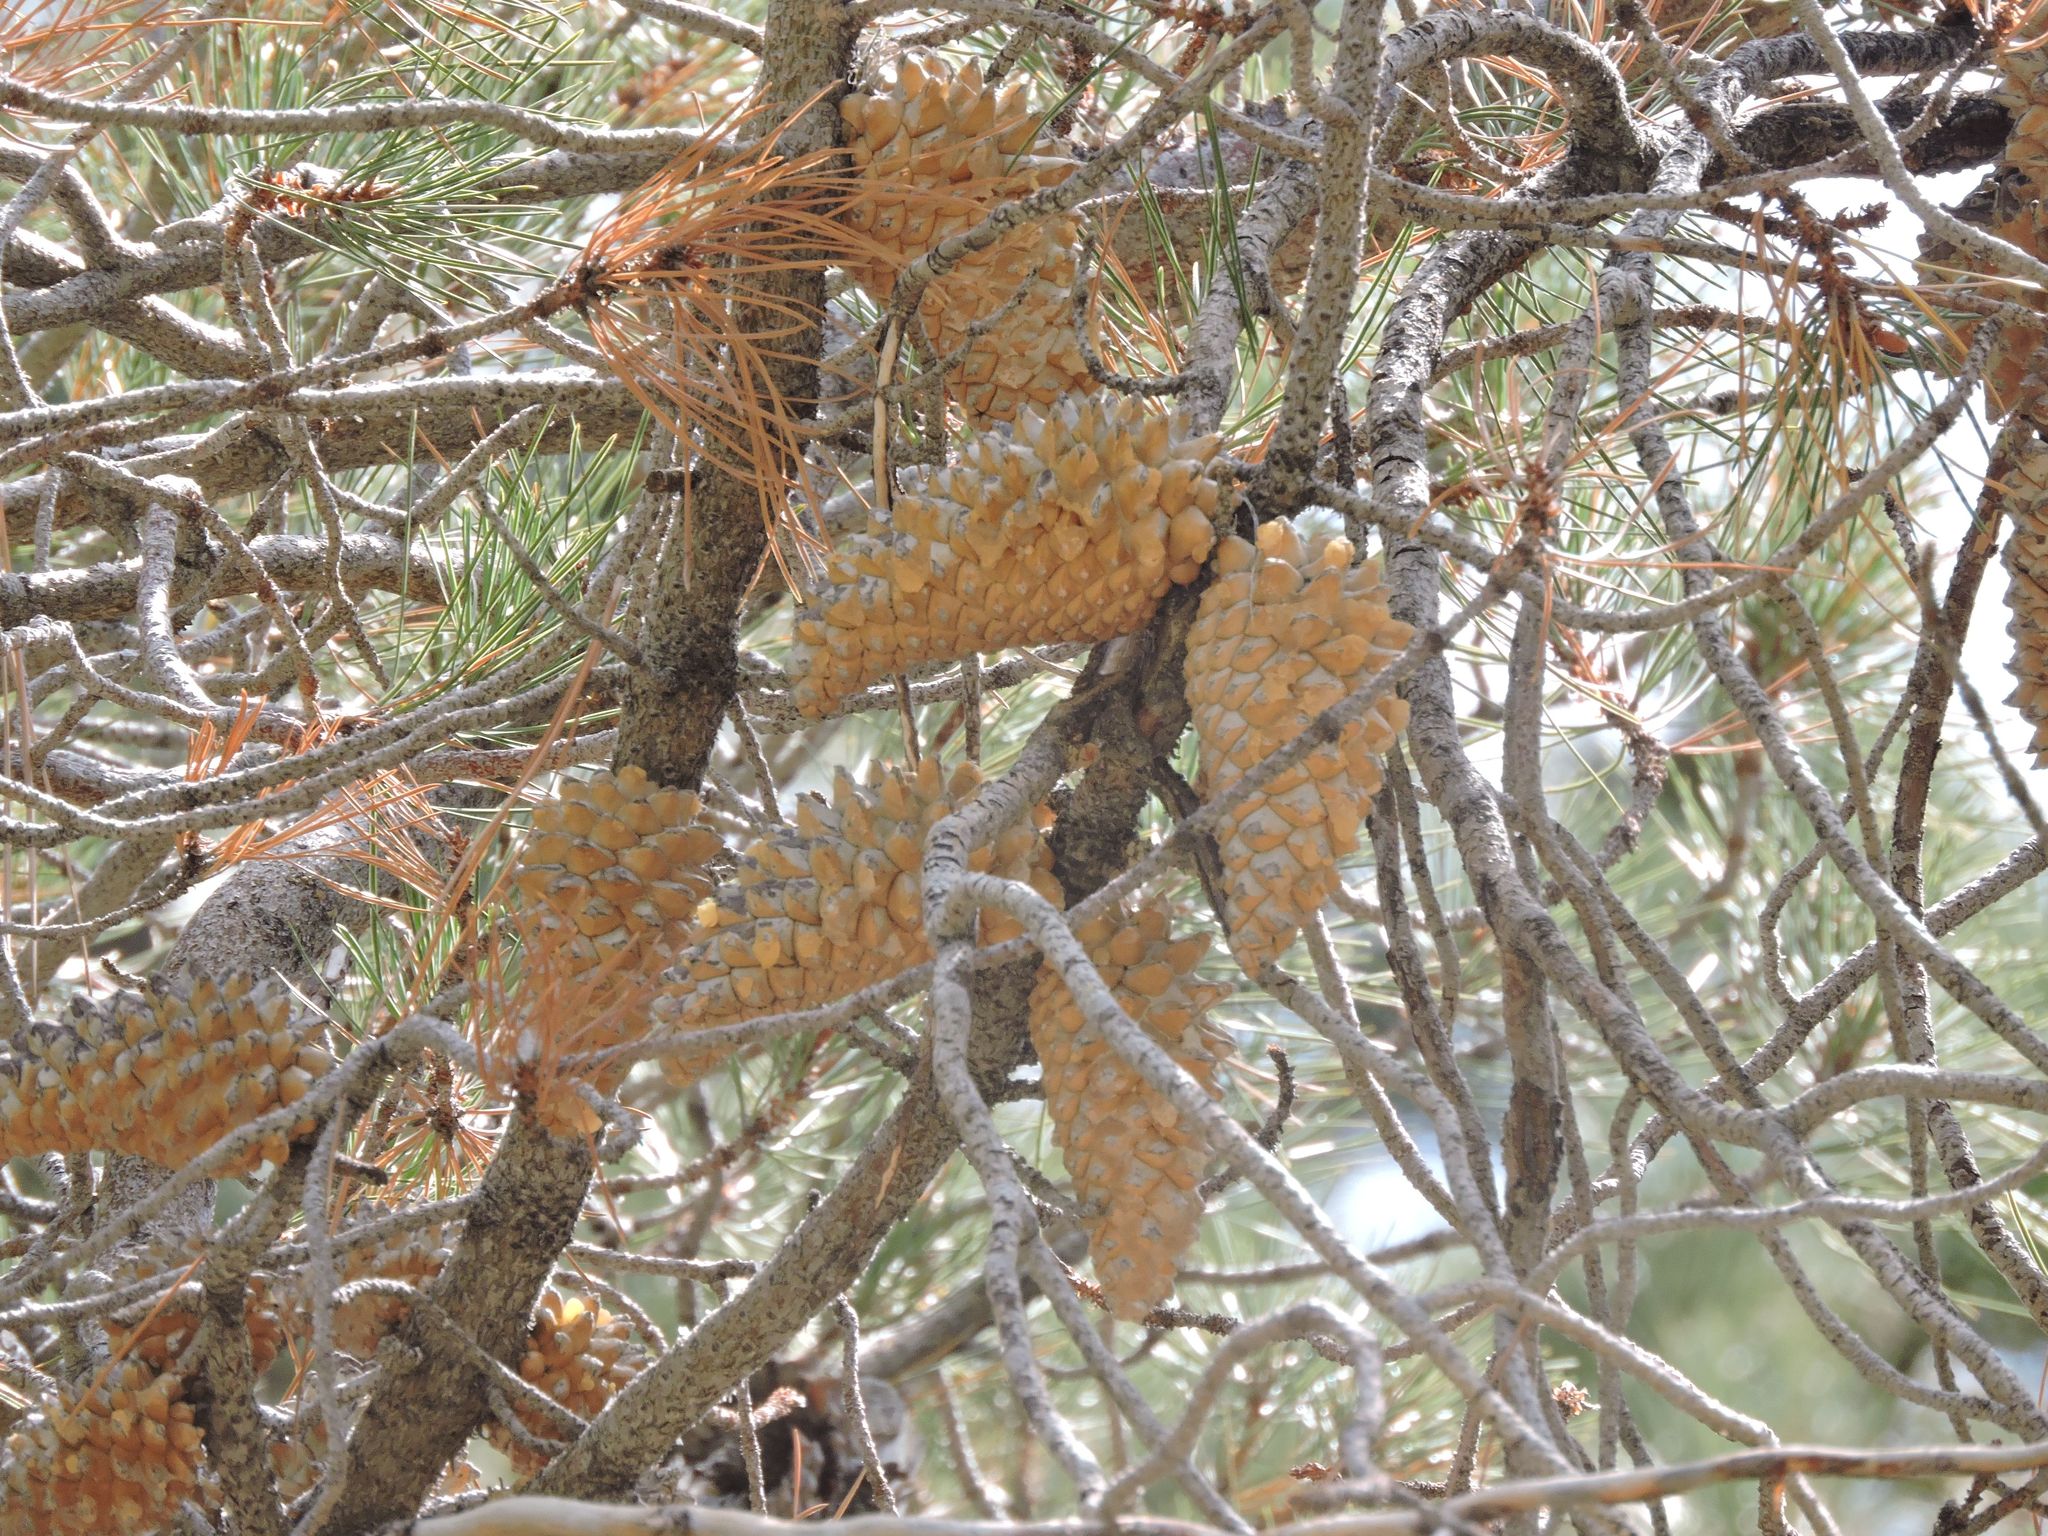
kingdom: Plantae
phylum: Tracheophyta
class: Pinopsida
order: Pinales
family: Pinaceae
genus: Pinus
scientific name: Pinus attenuata
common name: Knobcone pine
